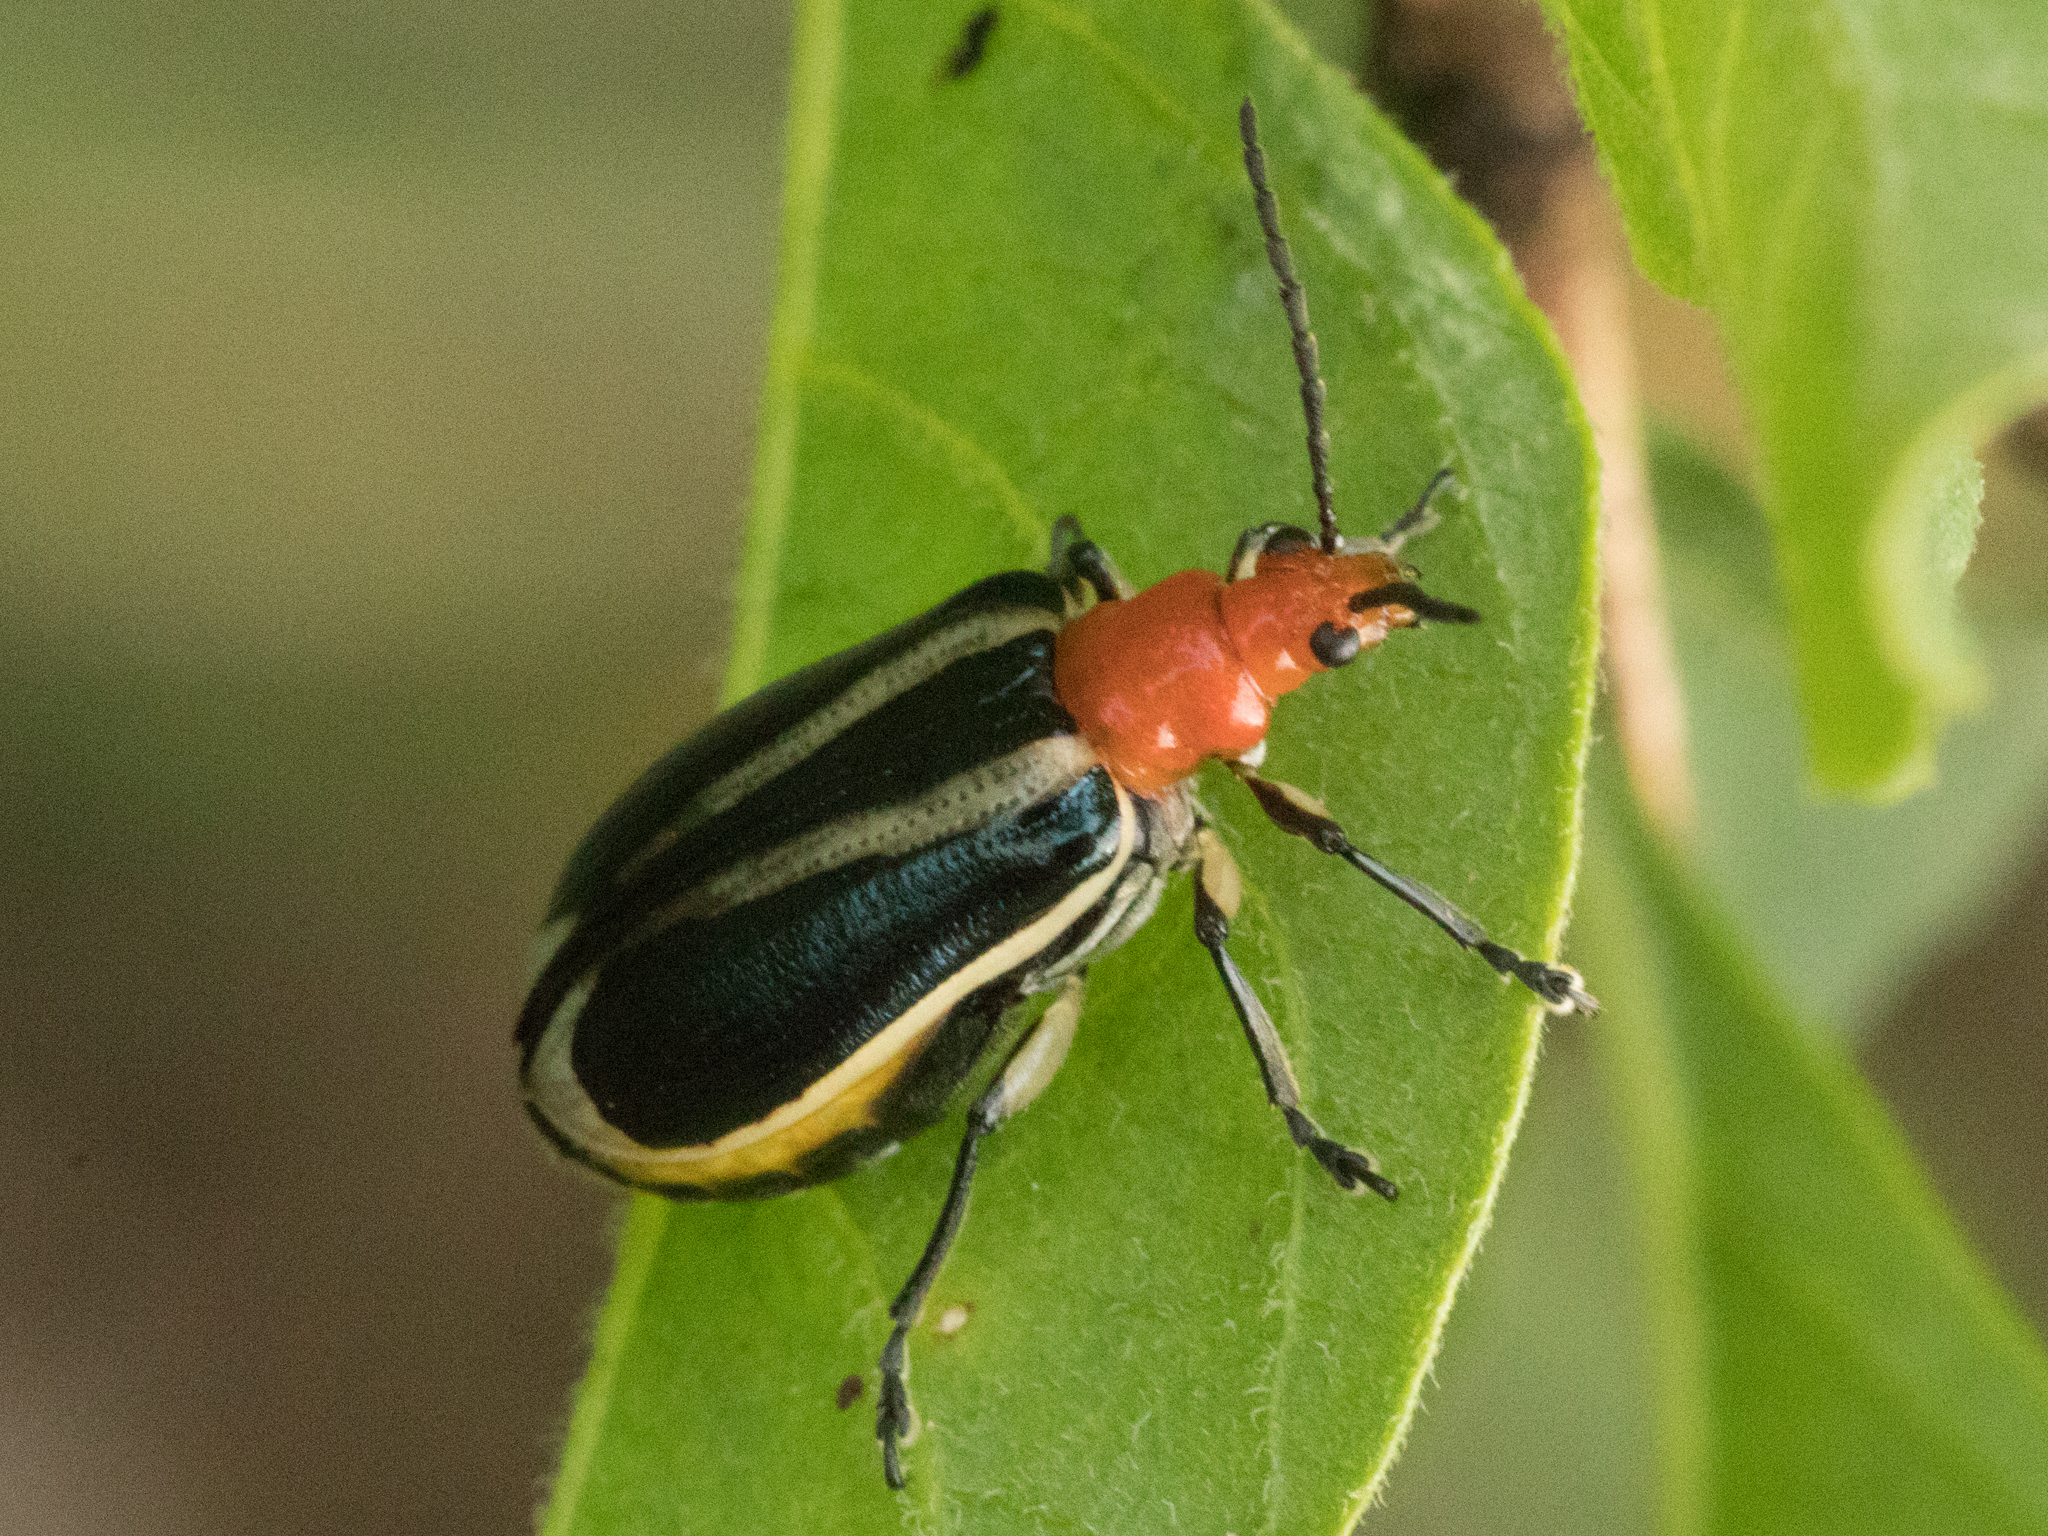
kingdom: Animalia
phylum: Arthropoda
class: Insecta
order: Coleoptera
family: Chrysomelidae
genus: Stolas
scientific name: Stolas chalybaea
